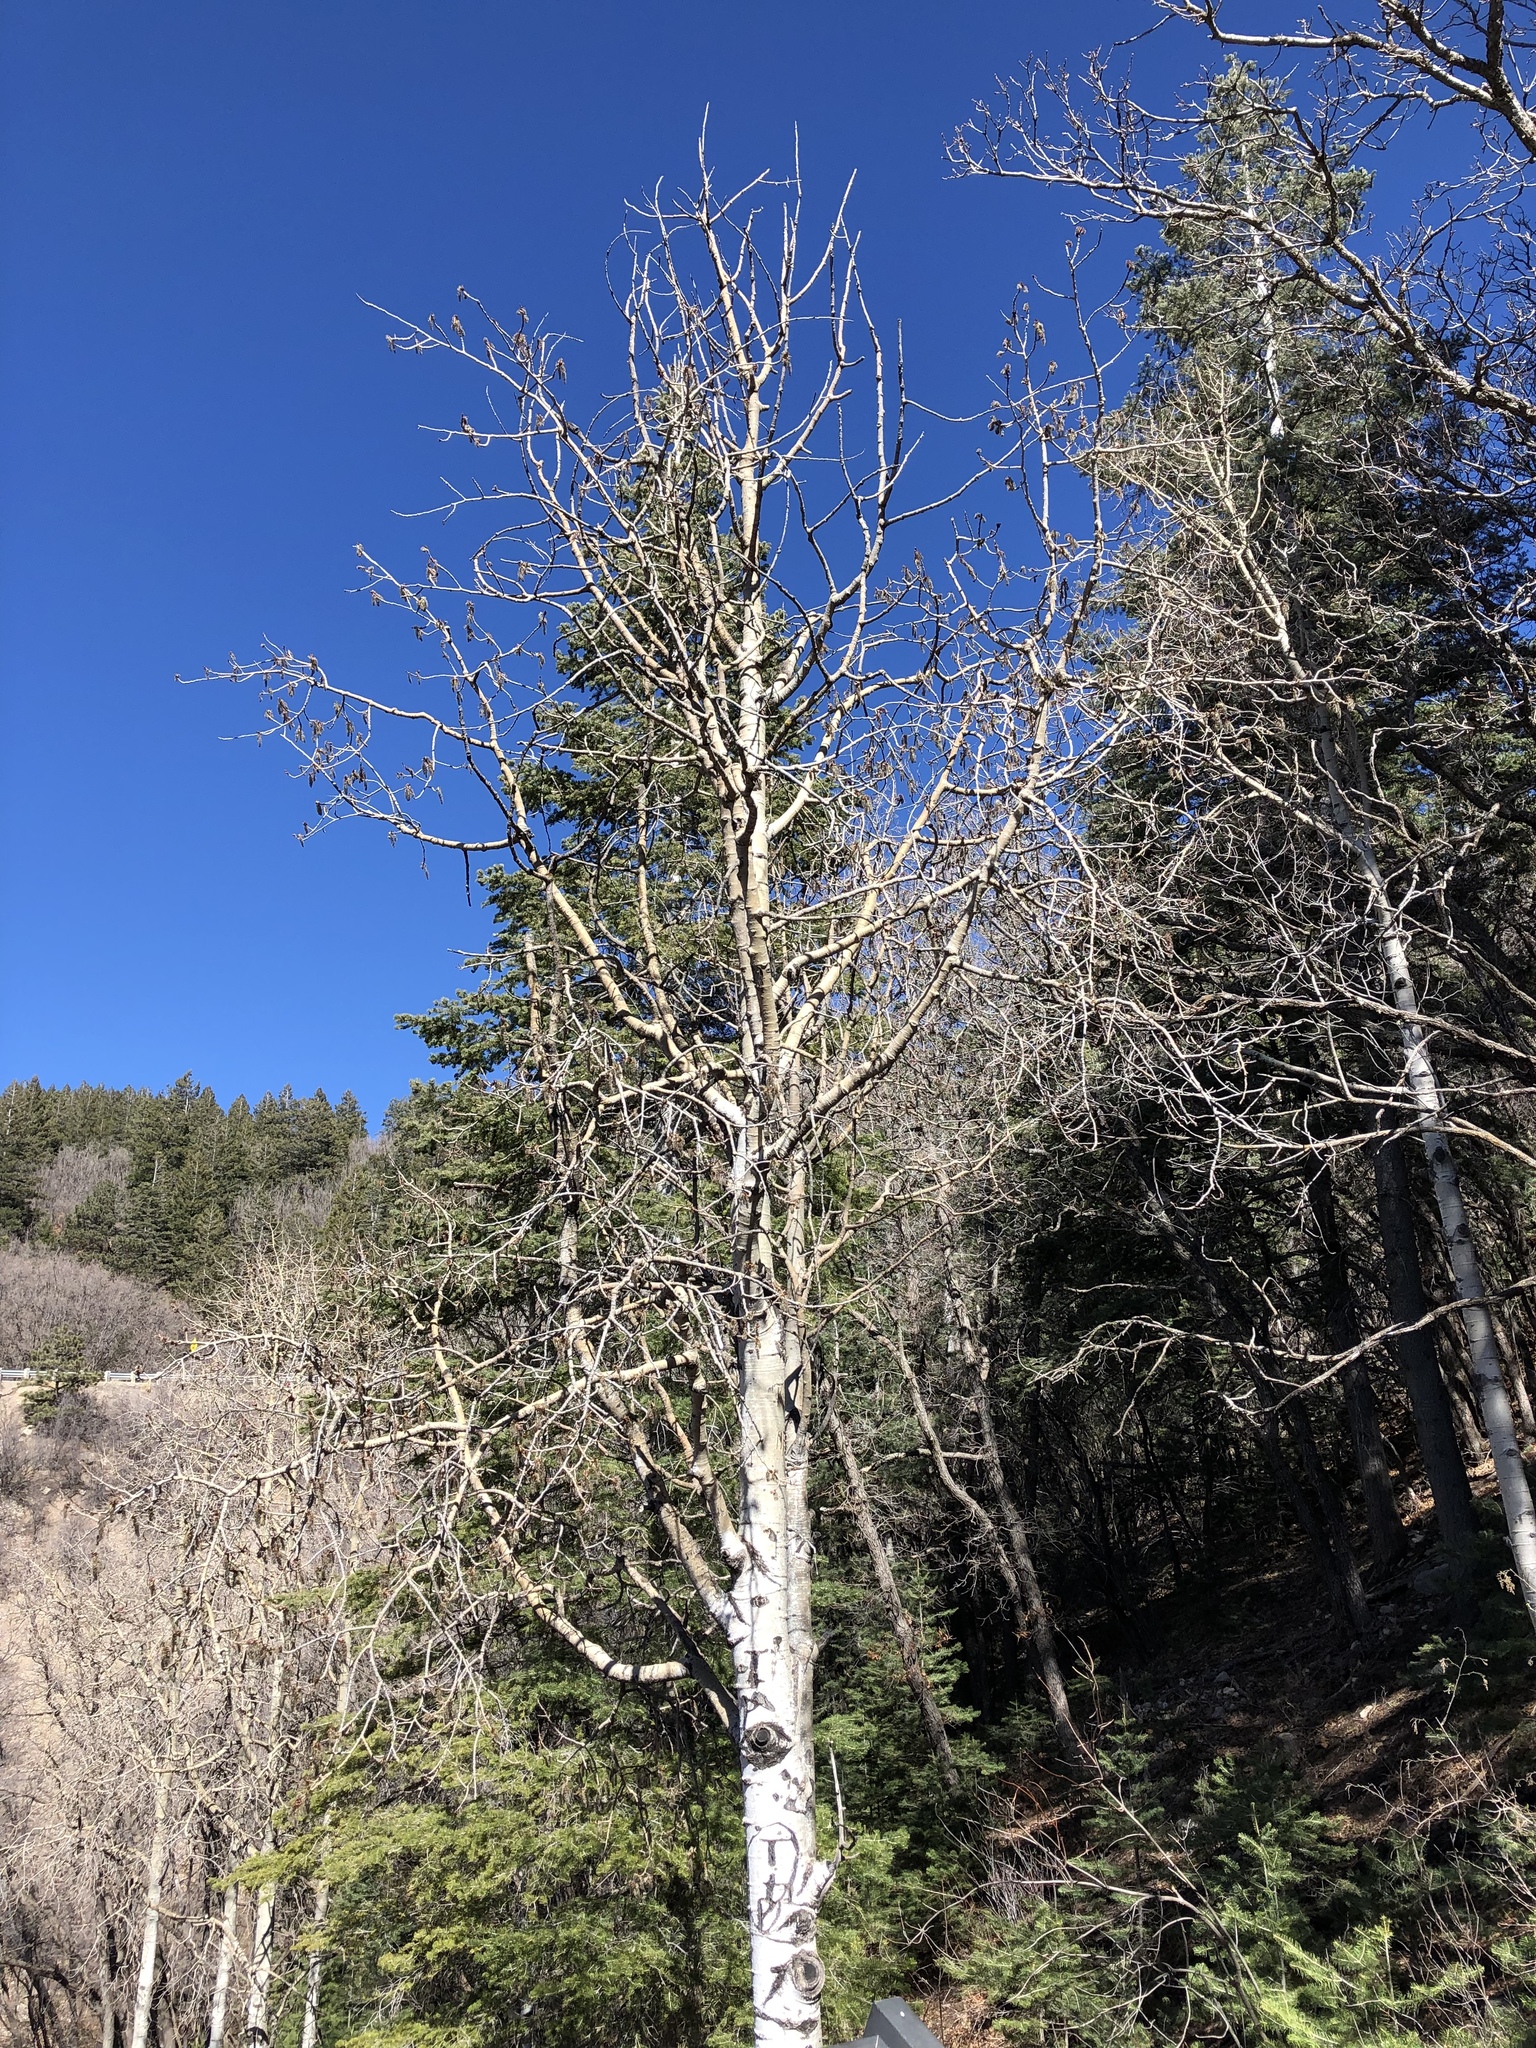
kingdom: Plantae
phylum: Tracheophyta
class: Magnoliopsida
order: Malpighiales
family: Salicaceae
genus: Populus
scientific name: Populus tremuloides
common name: Quaking aspen
